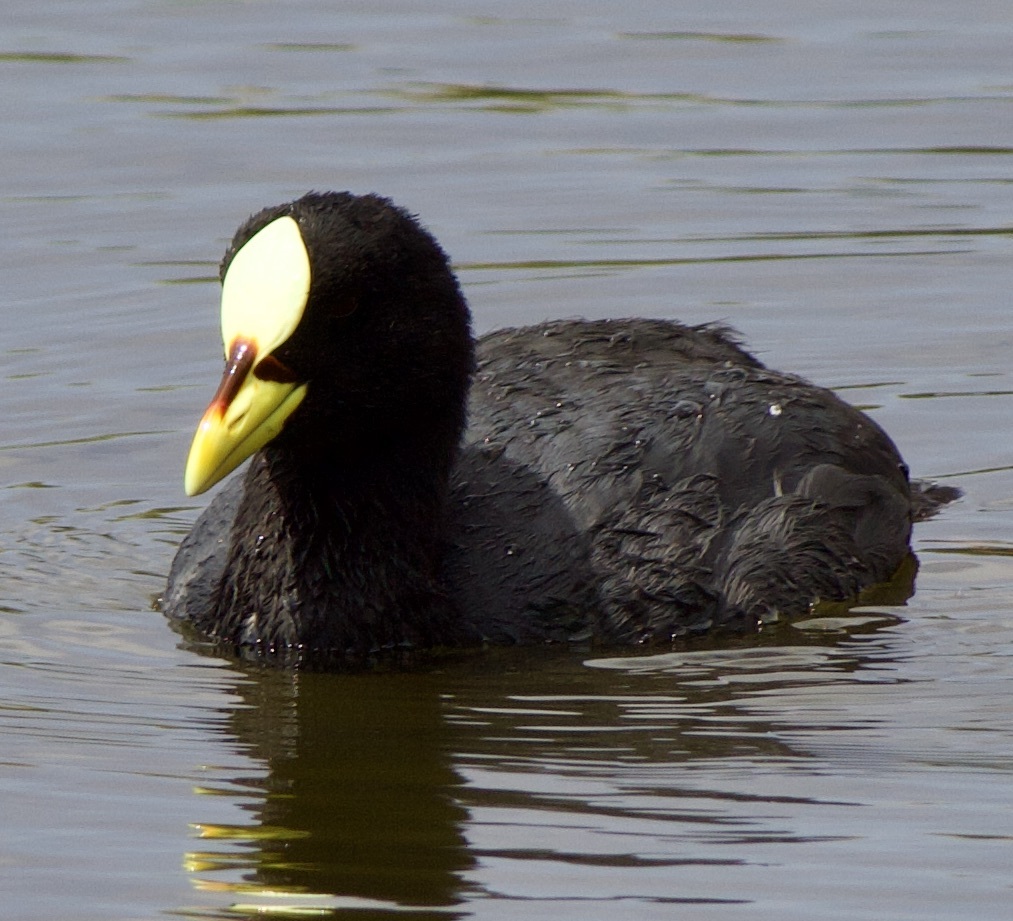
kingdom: Animalia
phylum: Chordata
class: Aves
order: Gruiformes
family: Rallidae
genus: Fulica
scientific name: Fulica armillata
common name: Red-gartered coot
